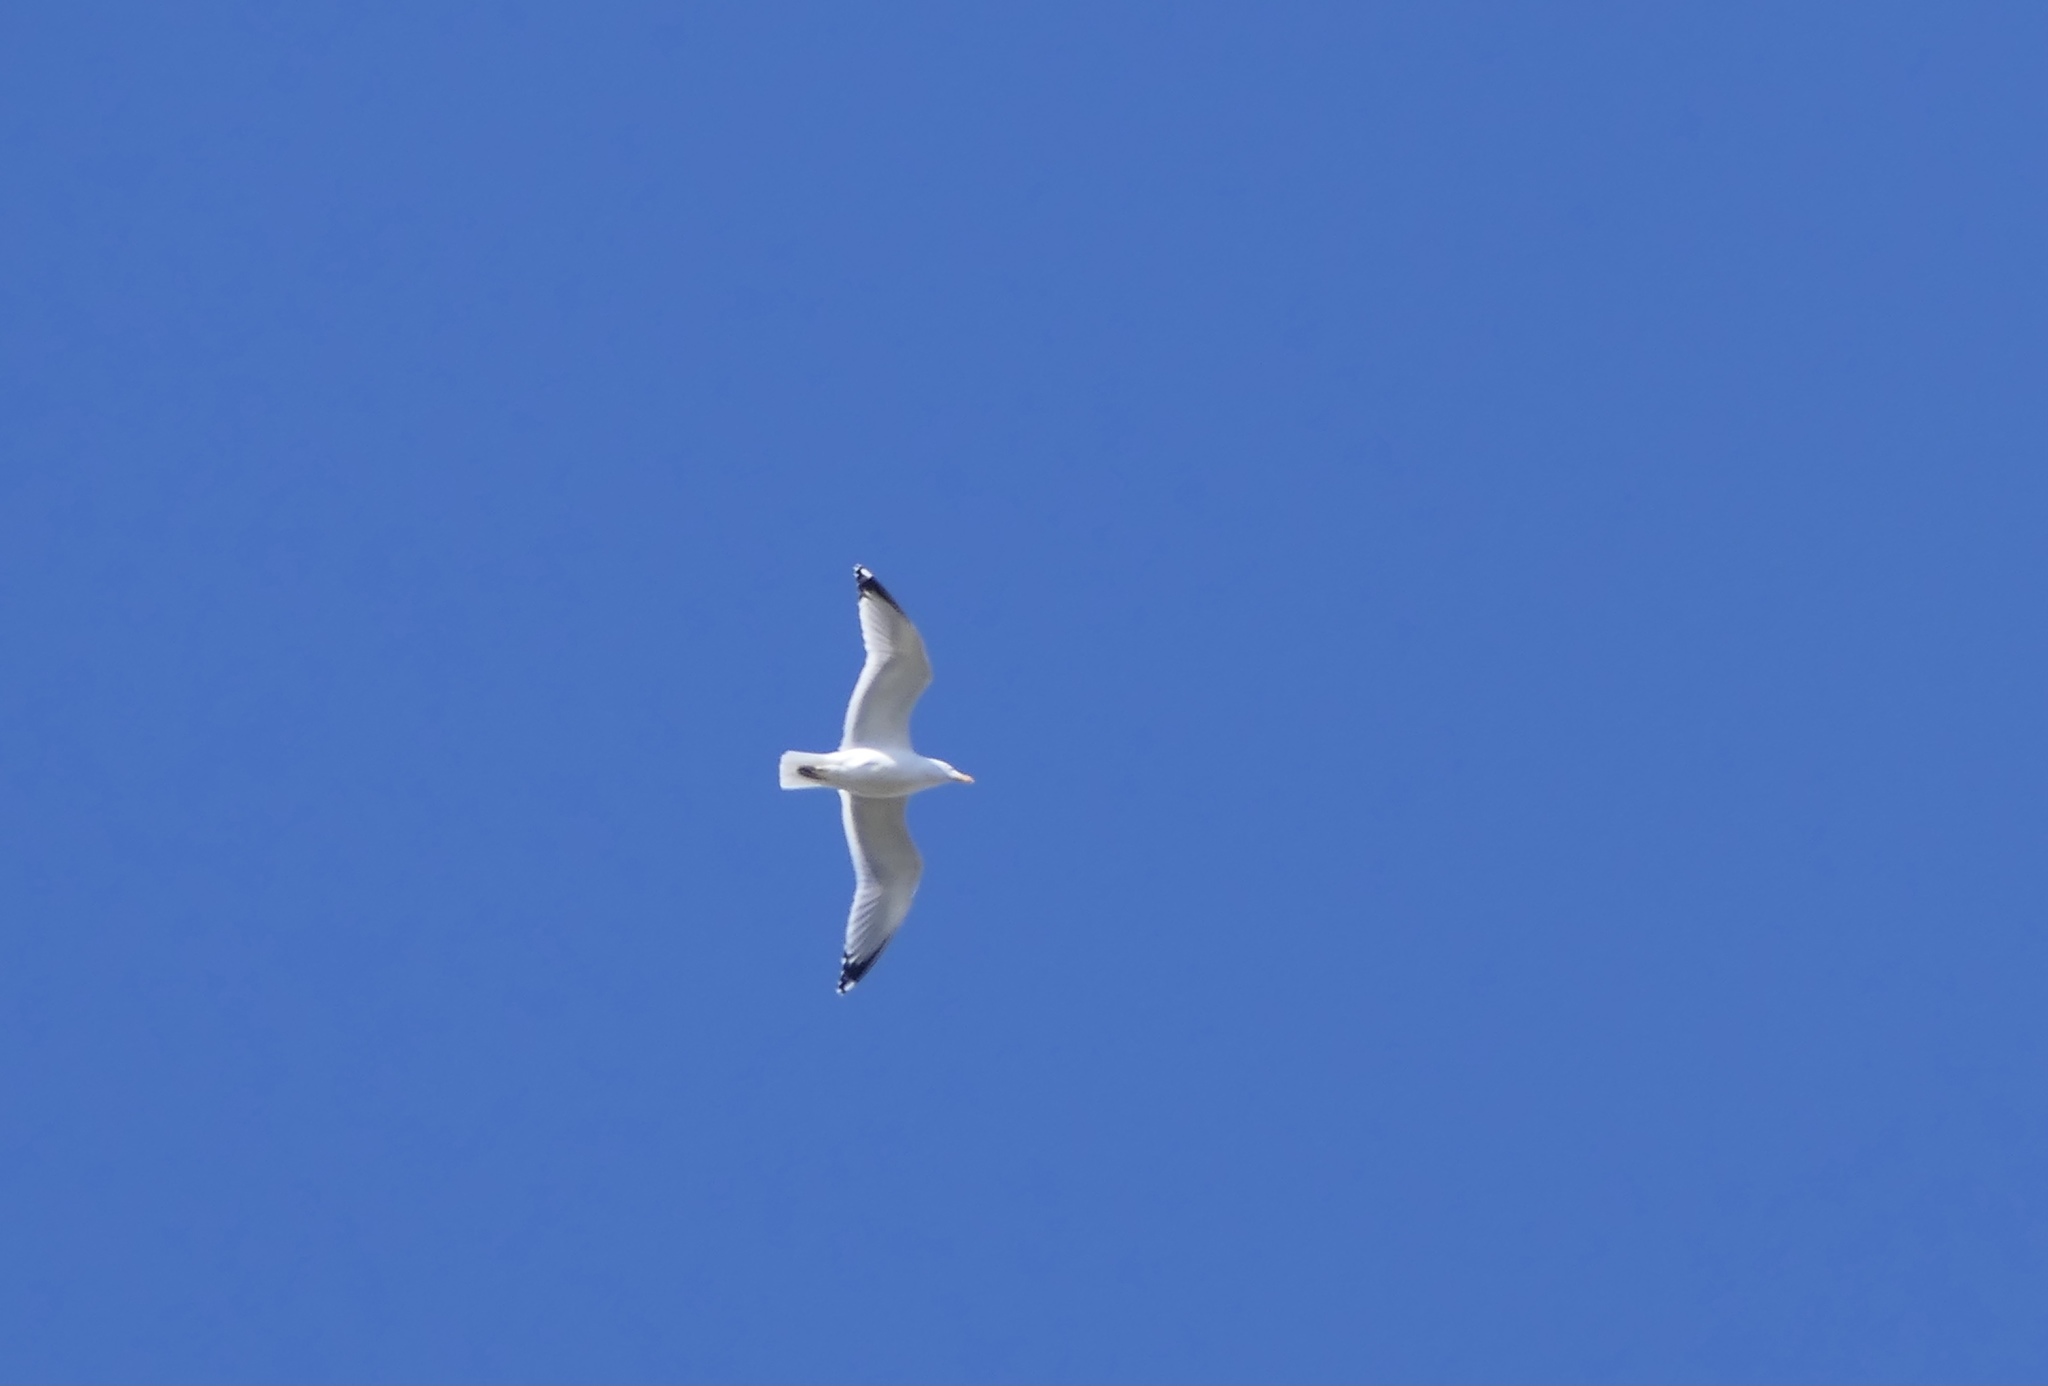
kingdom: Animalia
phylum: Chordata
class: Aves
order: Charadriiformes
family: Laridae
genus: Larus
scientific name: Larus argentatus
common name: Herring gull
